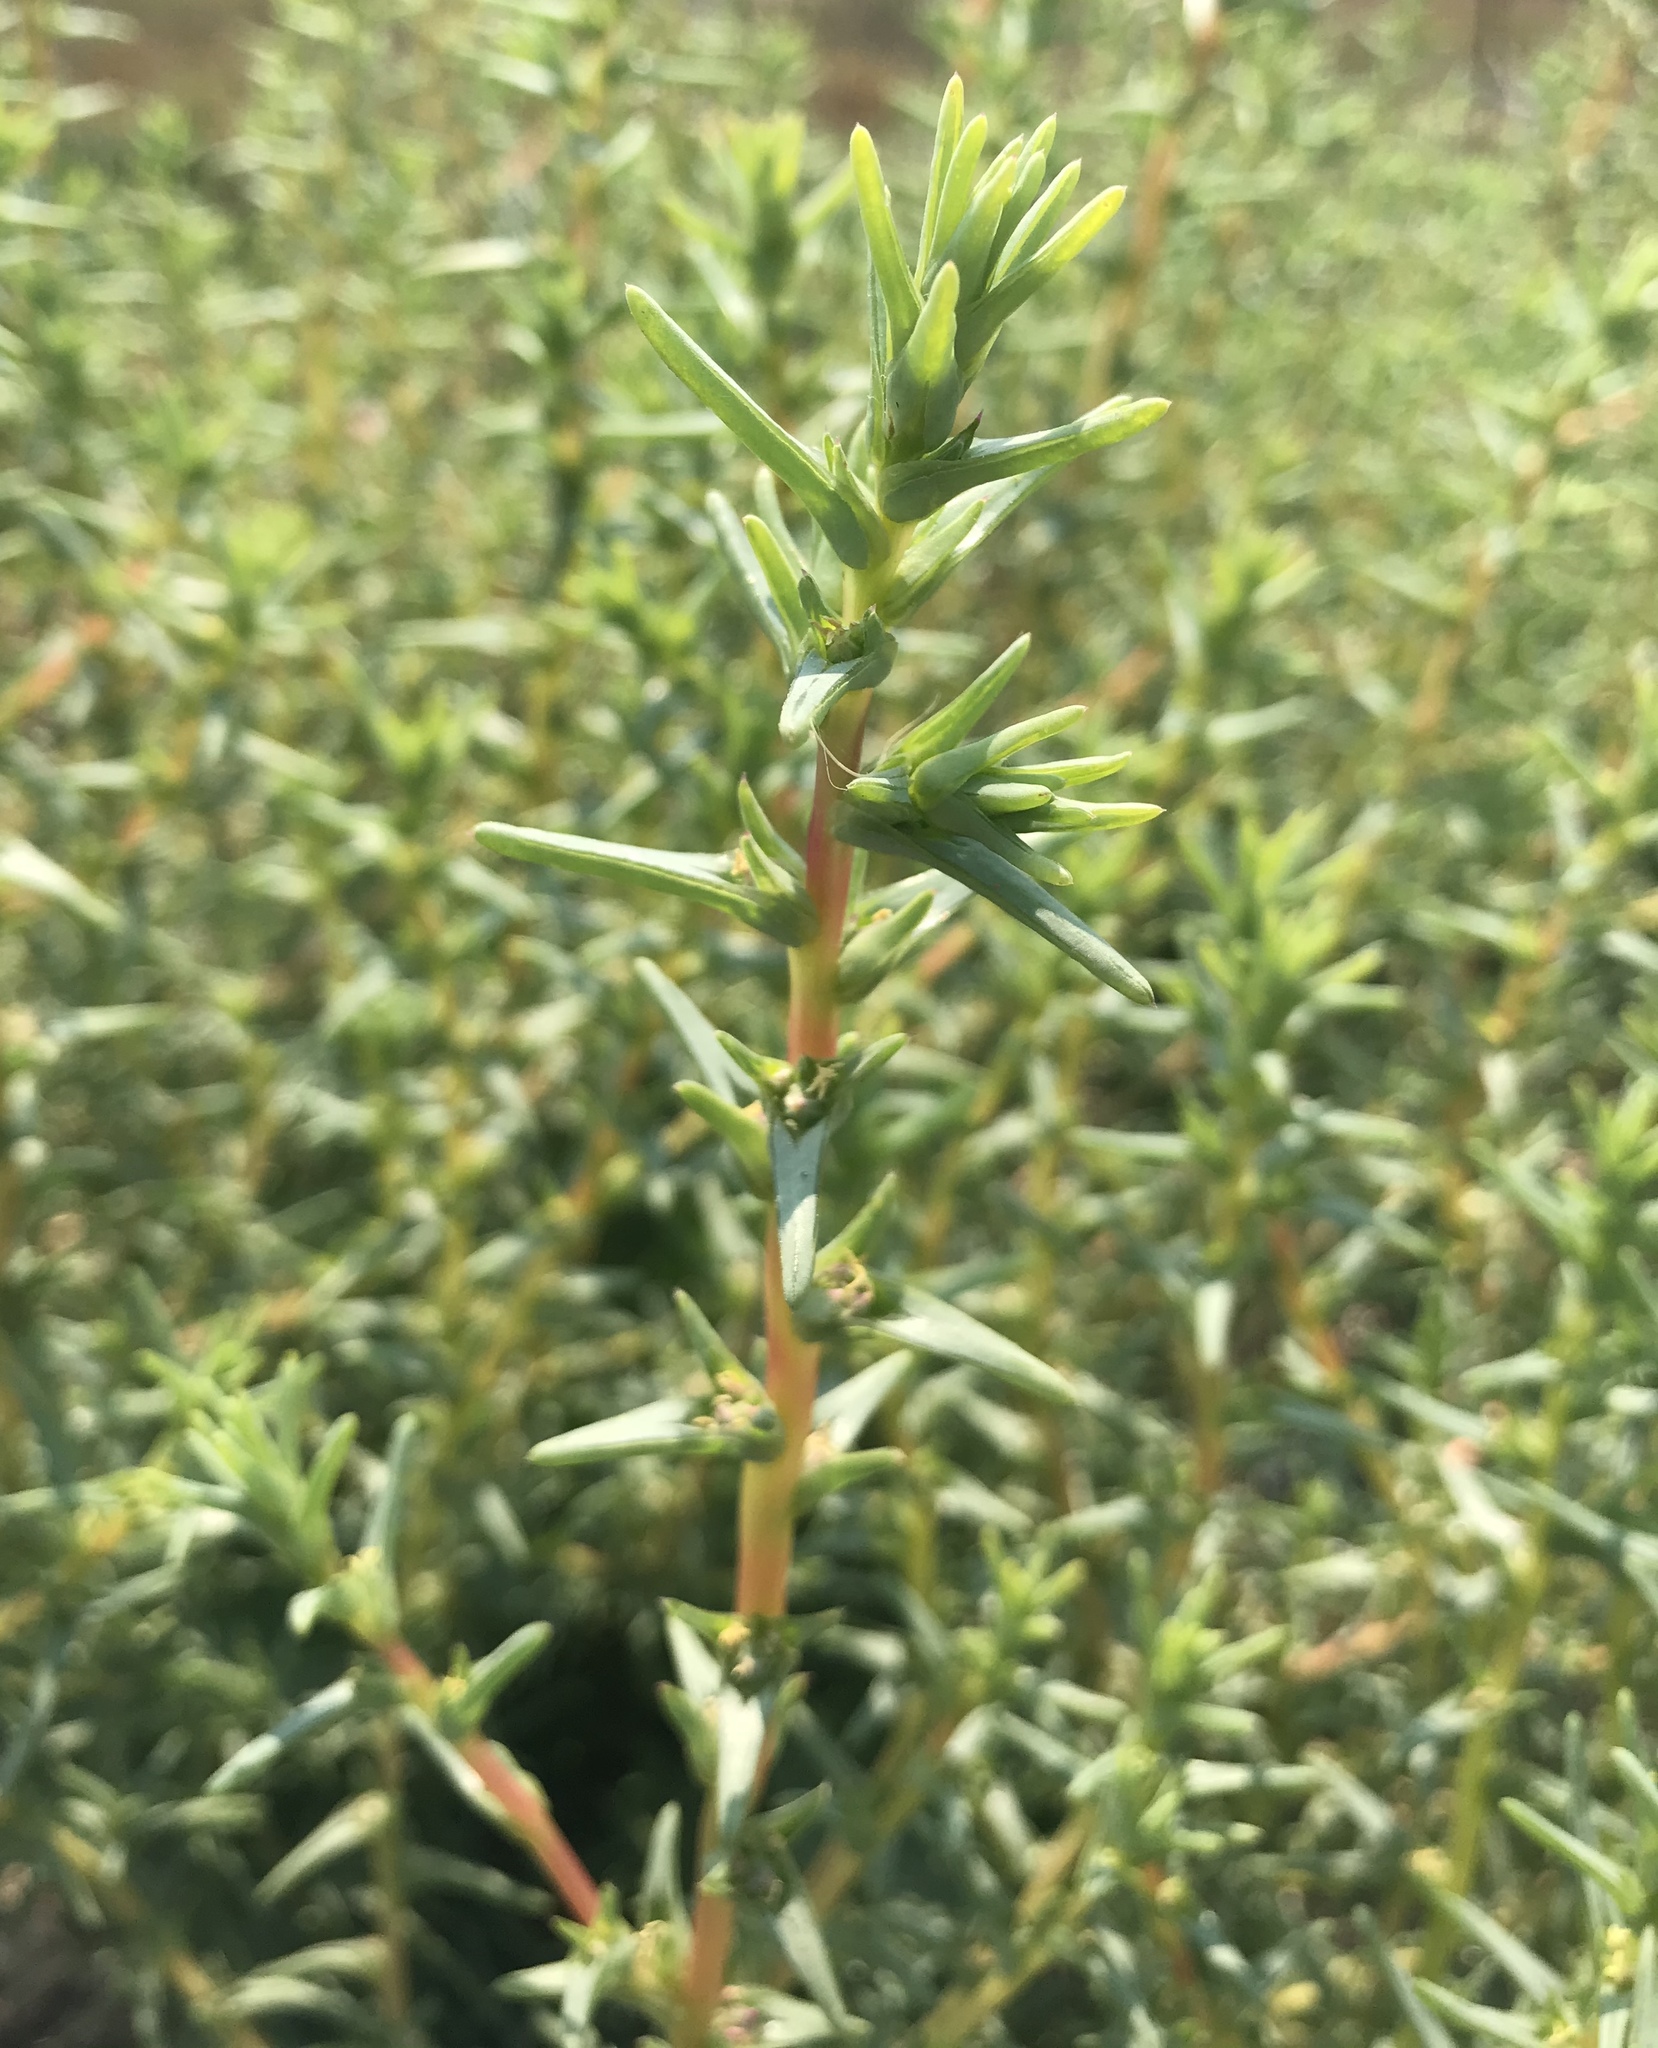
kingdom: Plantae
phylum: Tracheophyta
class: Magnoliopsida
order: Caryophyllales
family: Amaranthaceae
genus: Salsola
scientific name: Salsola soda
